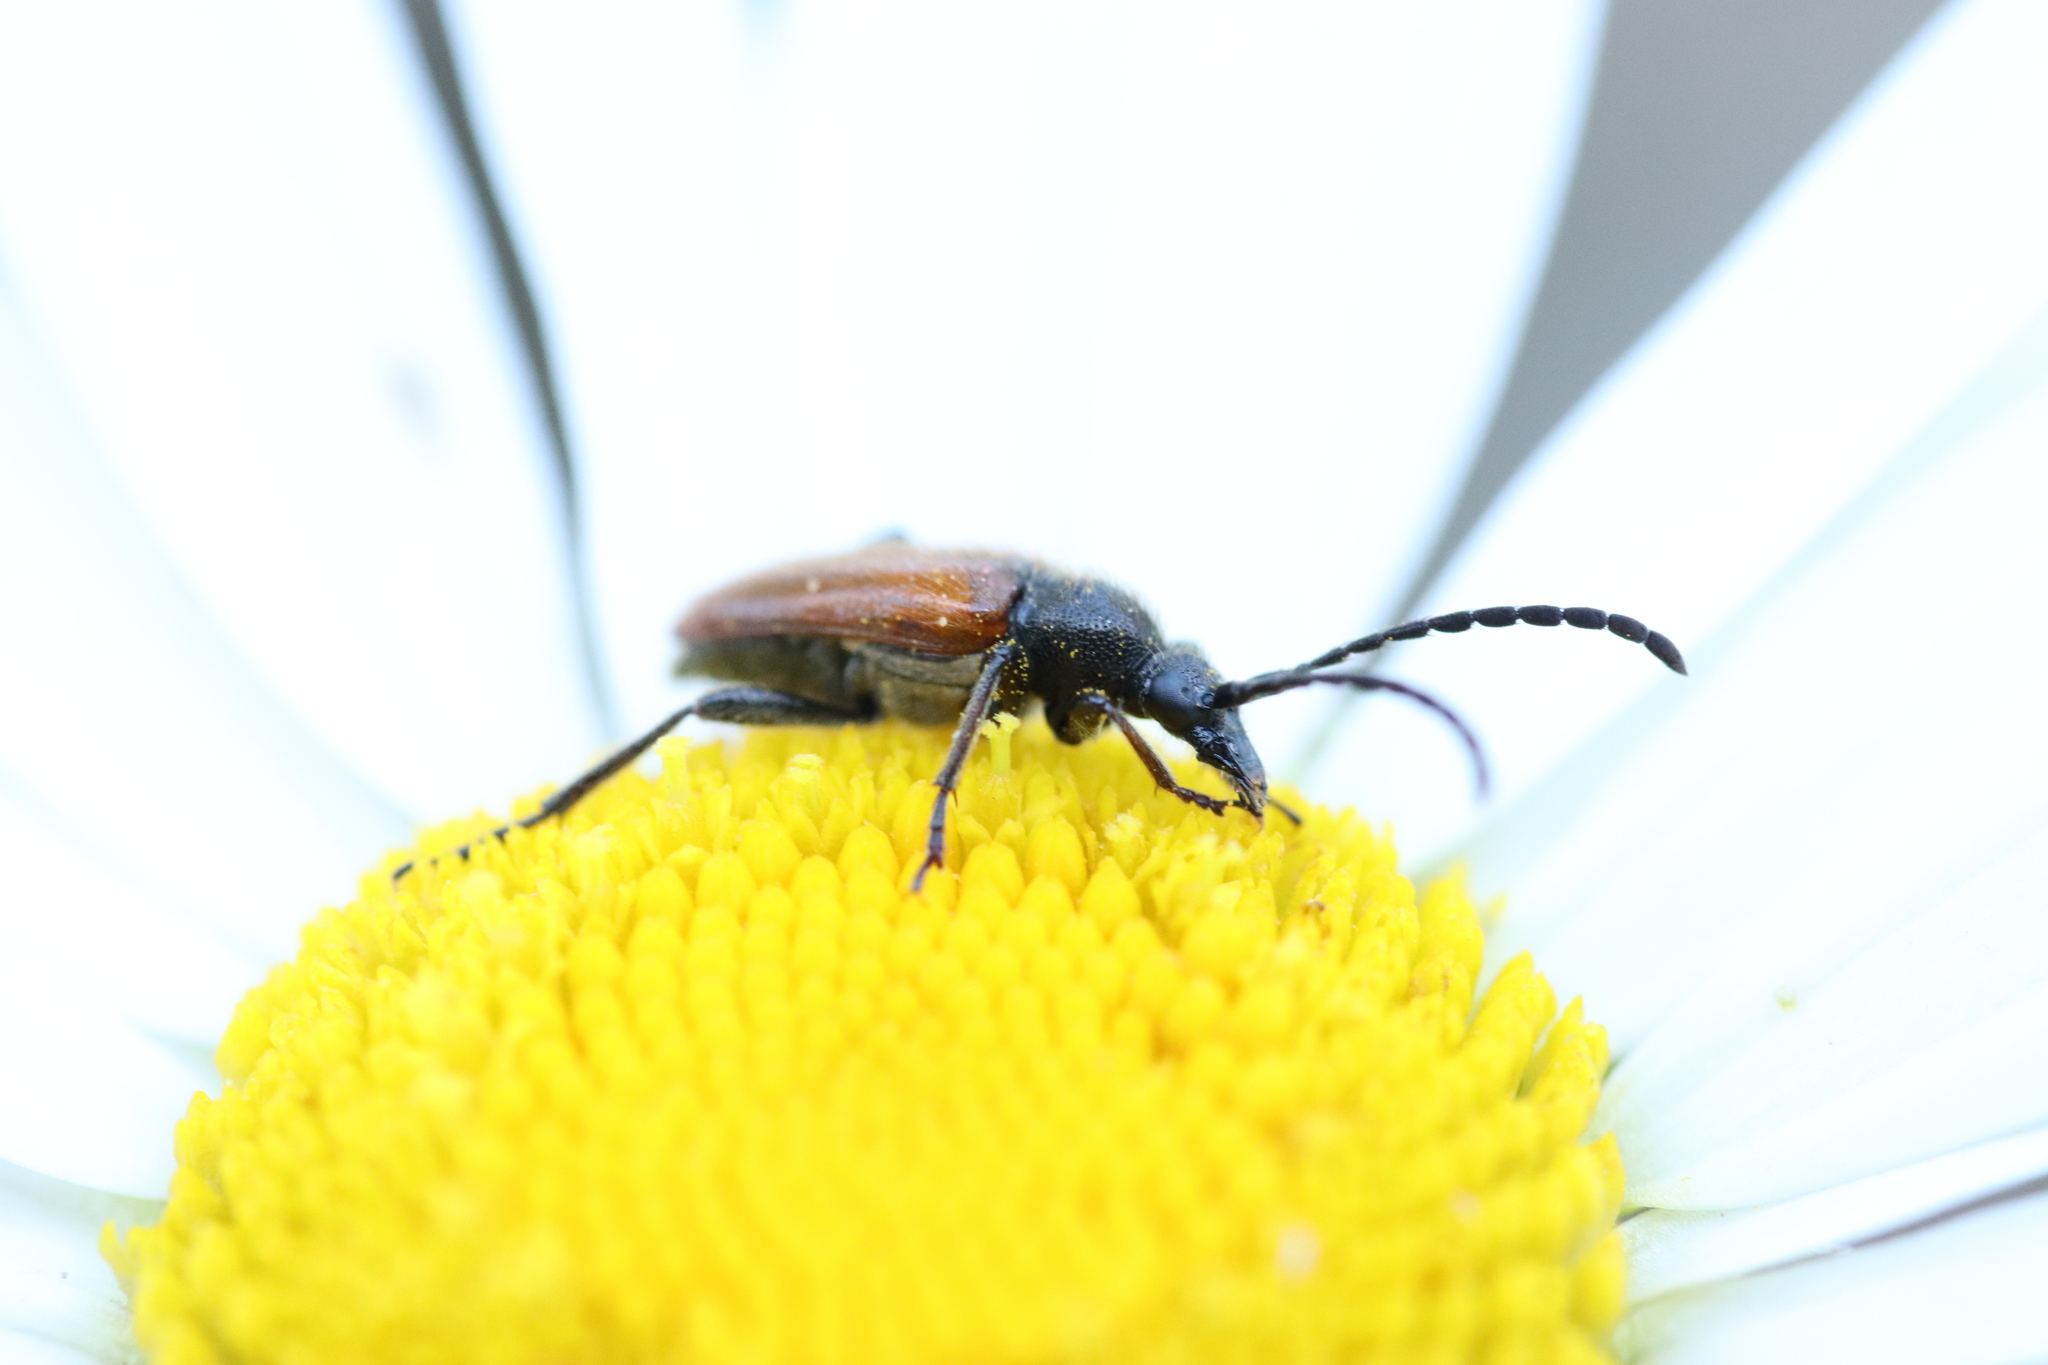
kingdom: Animalia
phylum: Arthropoda
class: Insecta
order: Coleoptera
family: Cerambycidae
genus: Pseudovadonia
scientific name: Pseudovadonia livida
